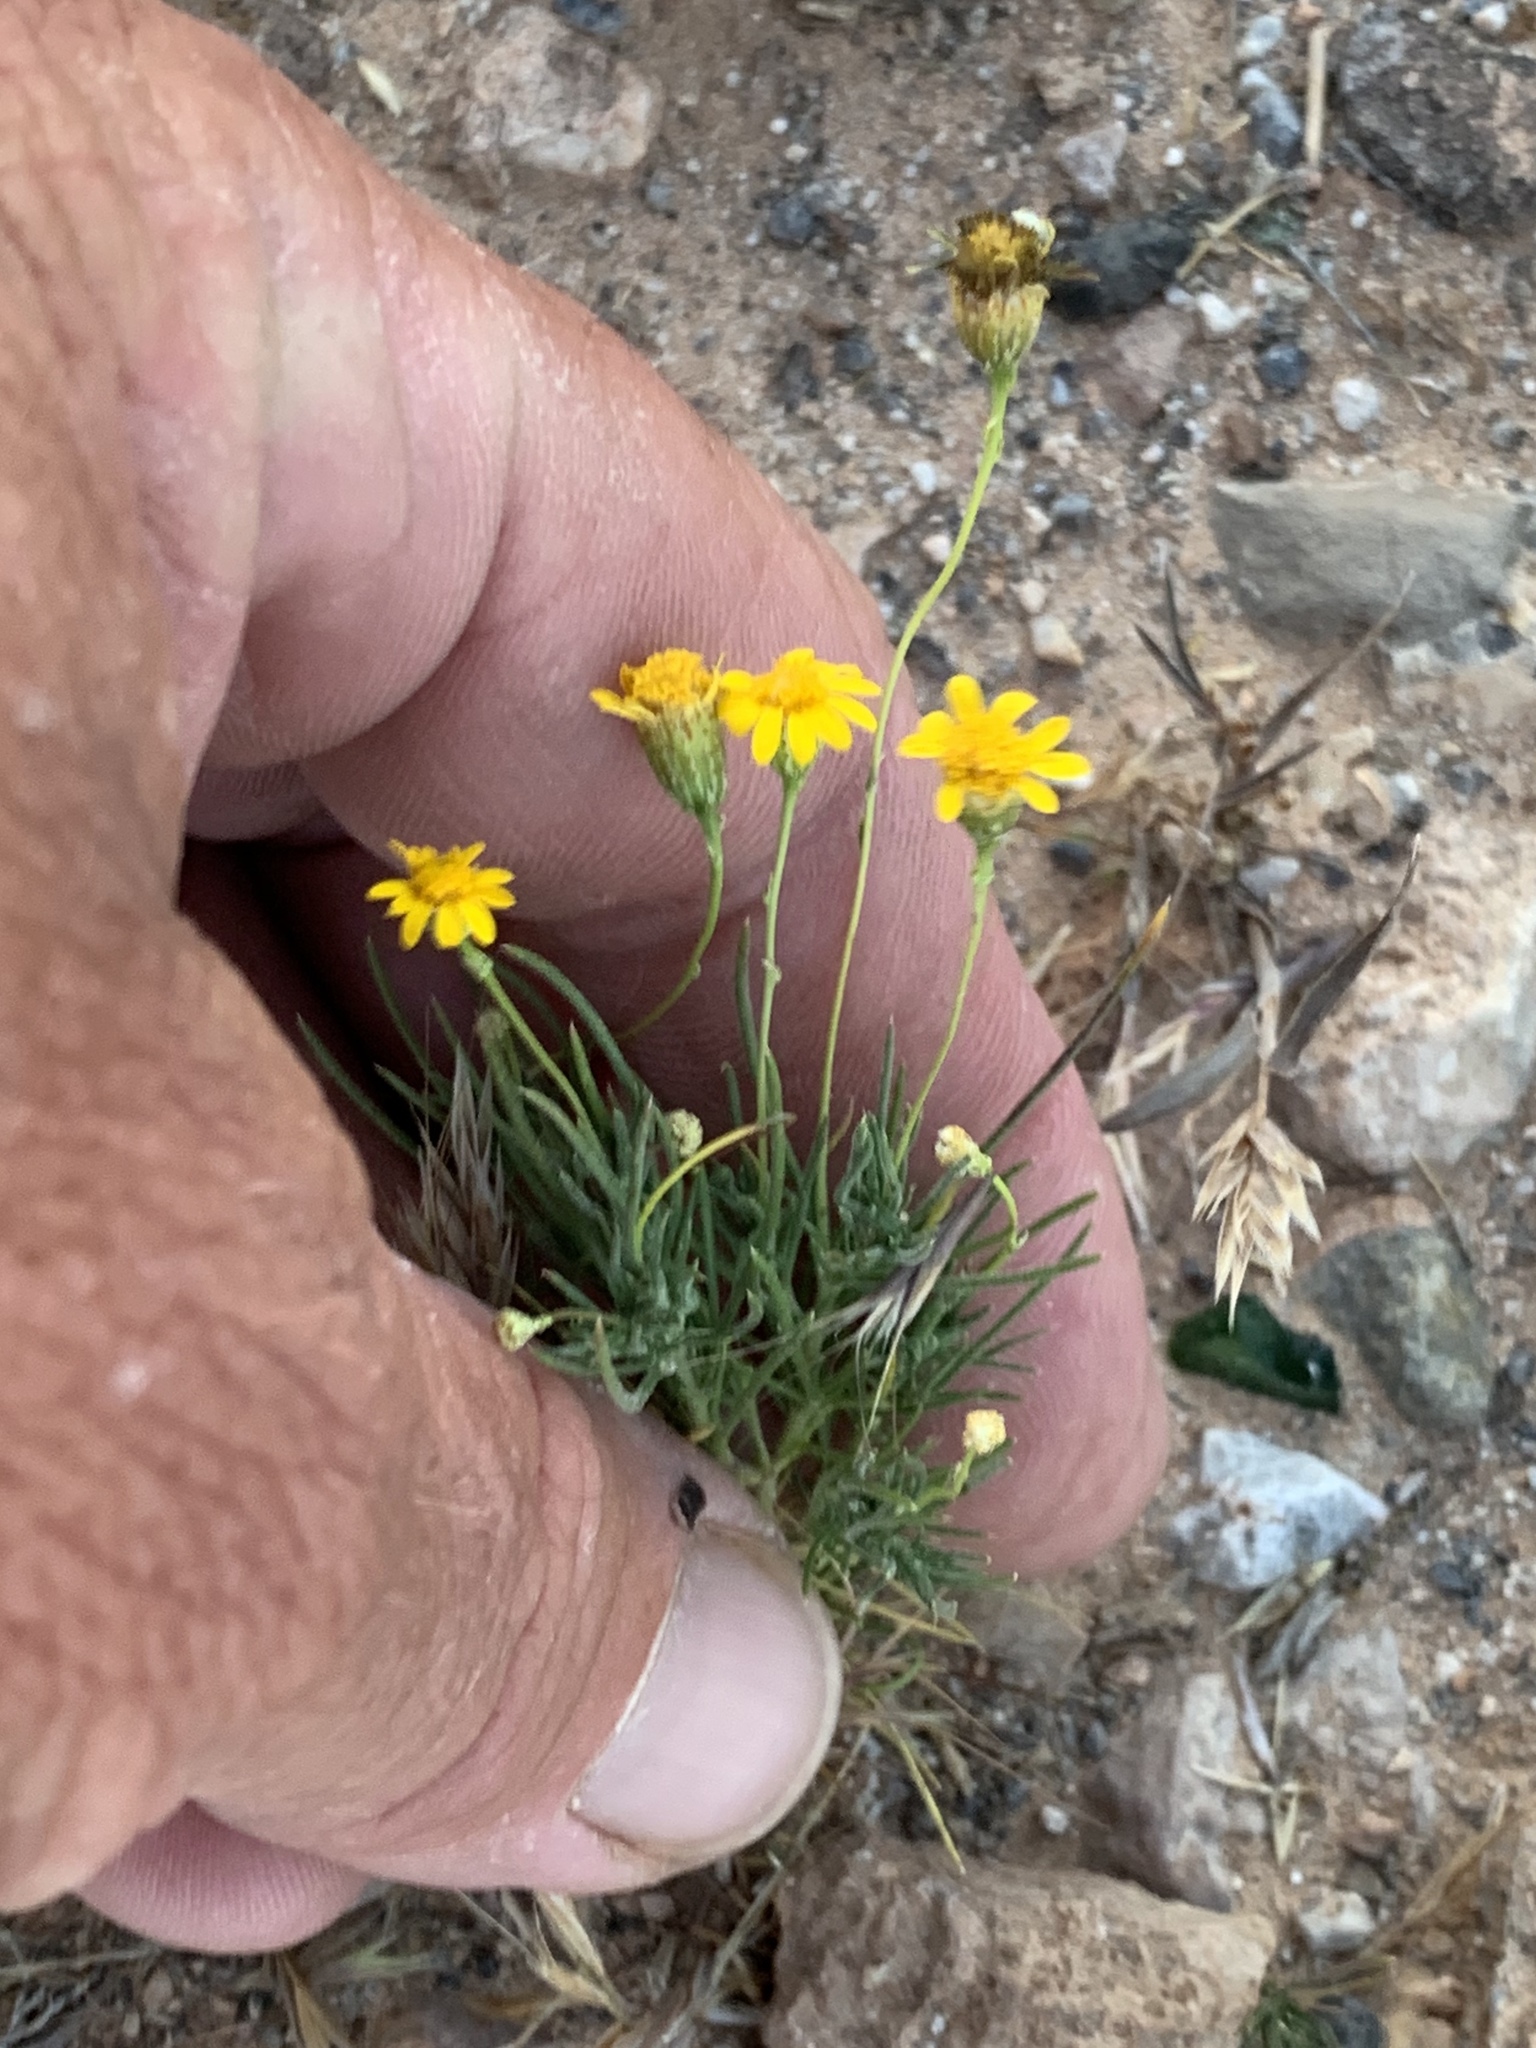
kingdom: Plantae
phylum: Tracheophyta
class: Magnoliopsida
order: Asterales
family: Asteraceae
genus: Thymophylla
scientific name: Thymophylla pentachaeta
